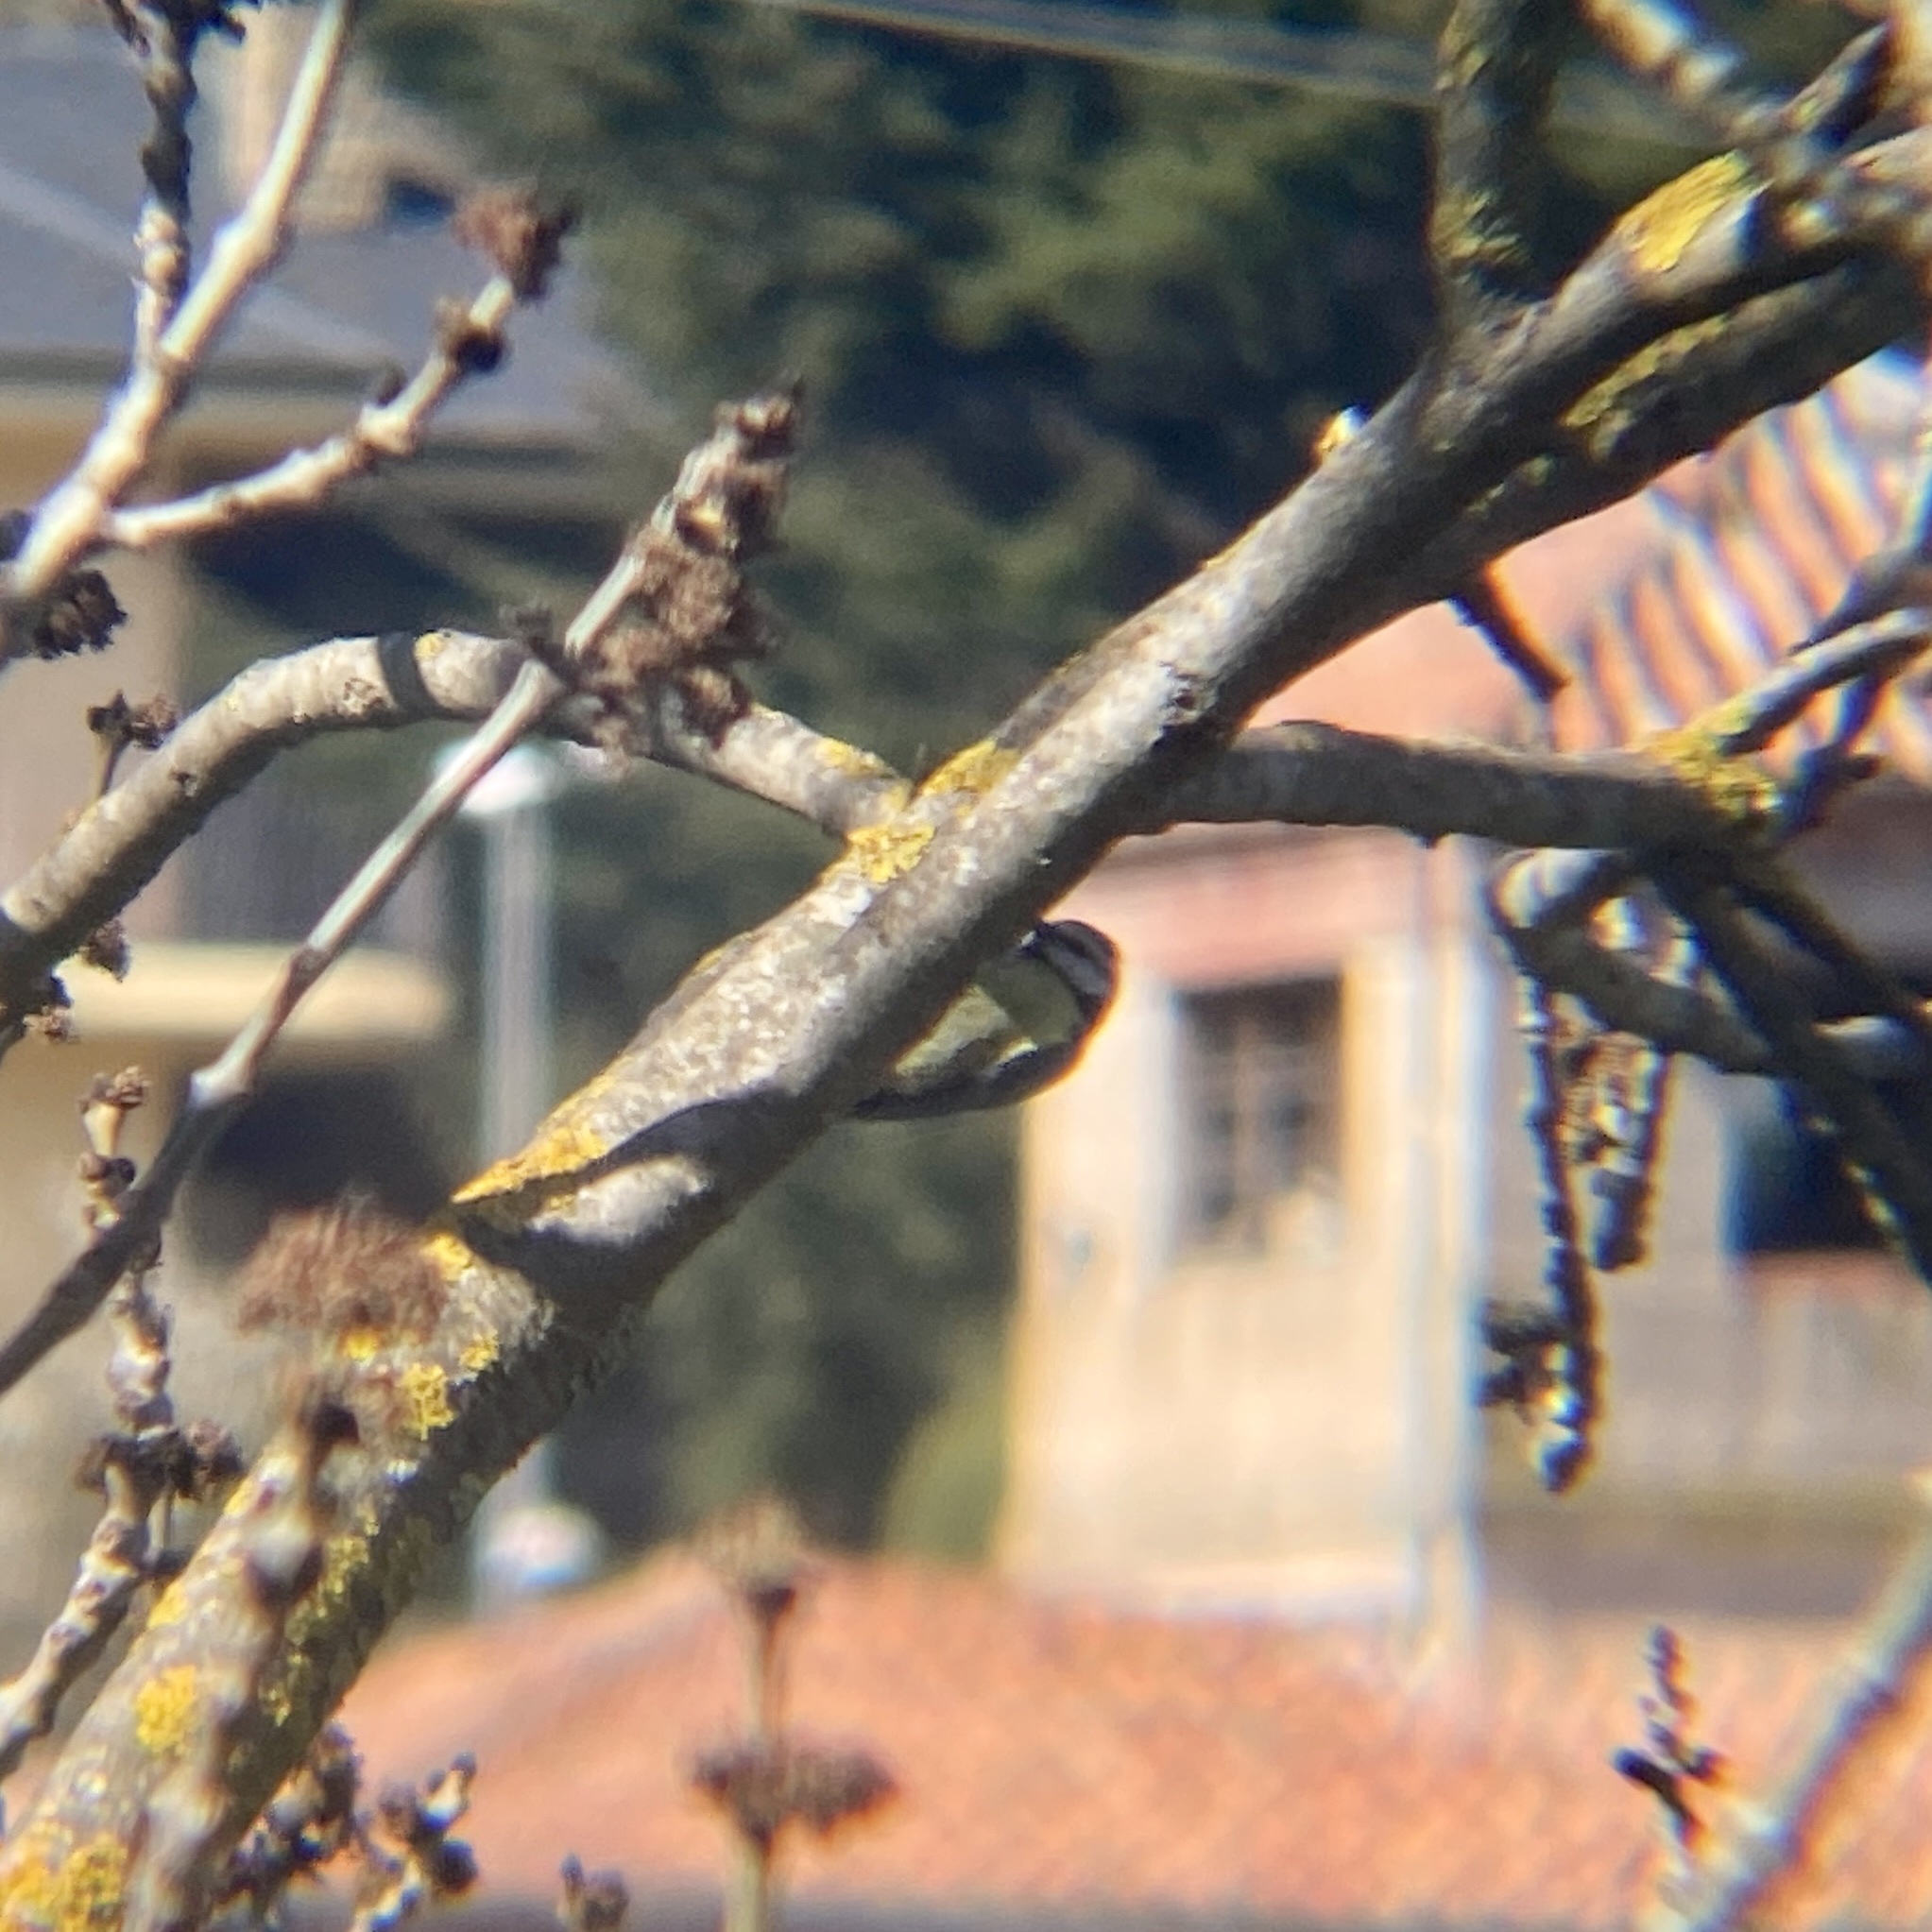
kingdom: Animalia
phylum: Chordata
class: Aves
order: Passeriformes
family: Paridae
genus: Cyanistes
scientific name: Cyanistes caeruleus
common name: Eurasian blue tit
